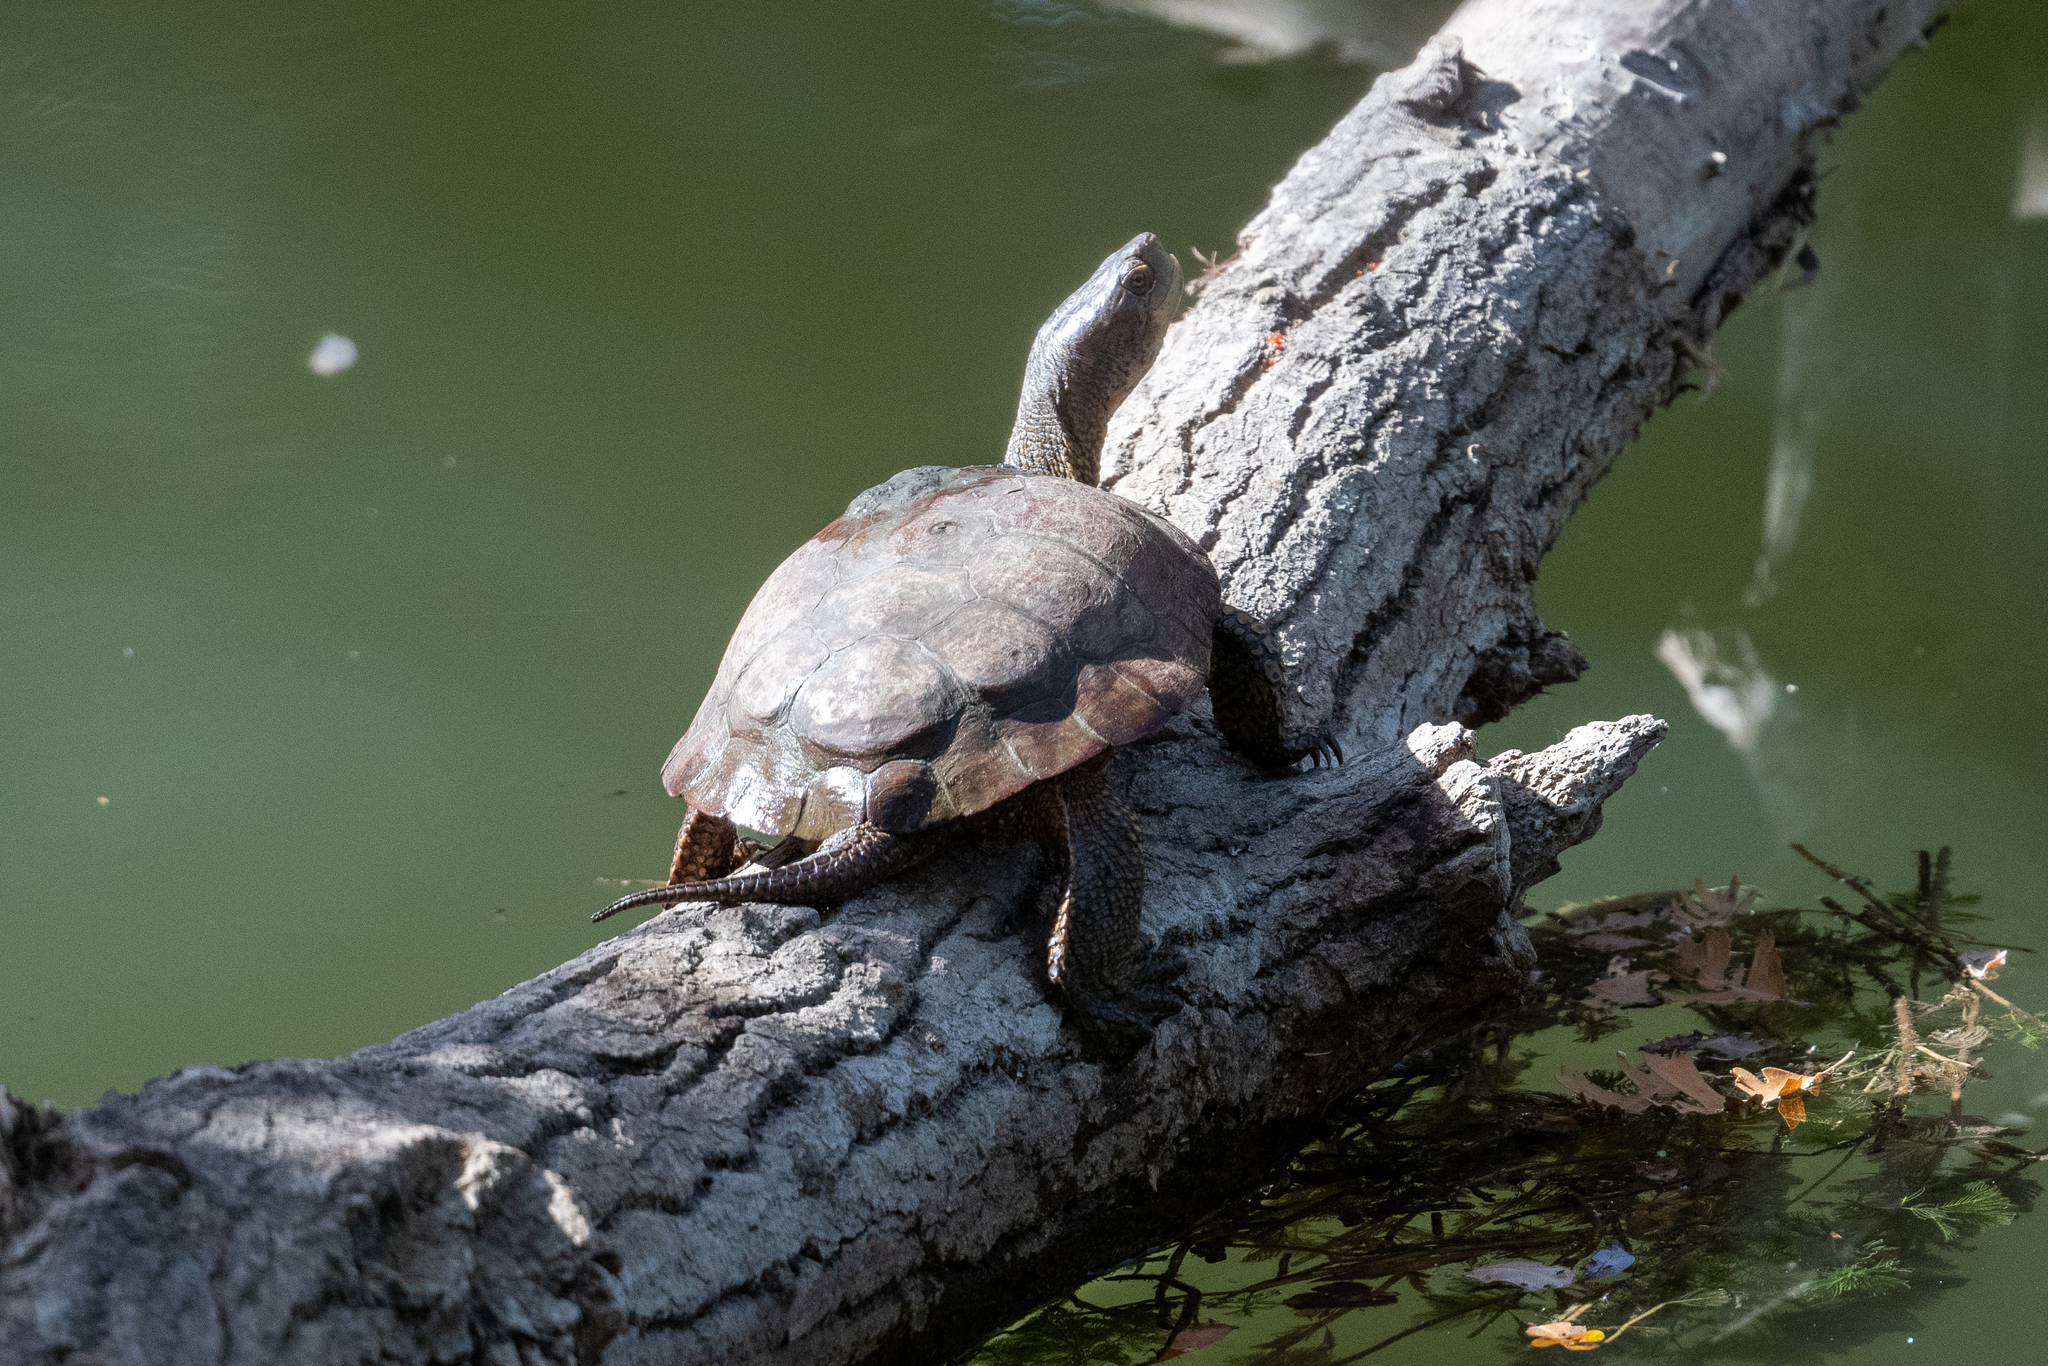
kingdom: Animalia
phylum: Chordata
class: Testudines
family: Emydidae
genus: Actinemys
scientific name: Actinemys marmorata
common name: Western pond turtle
